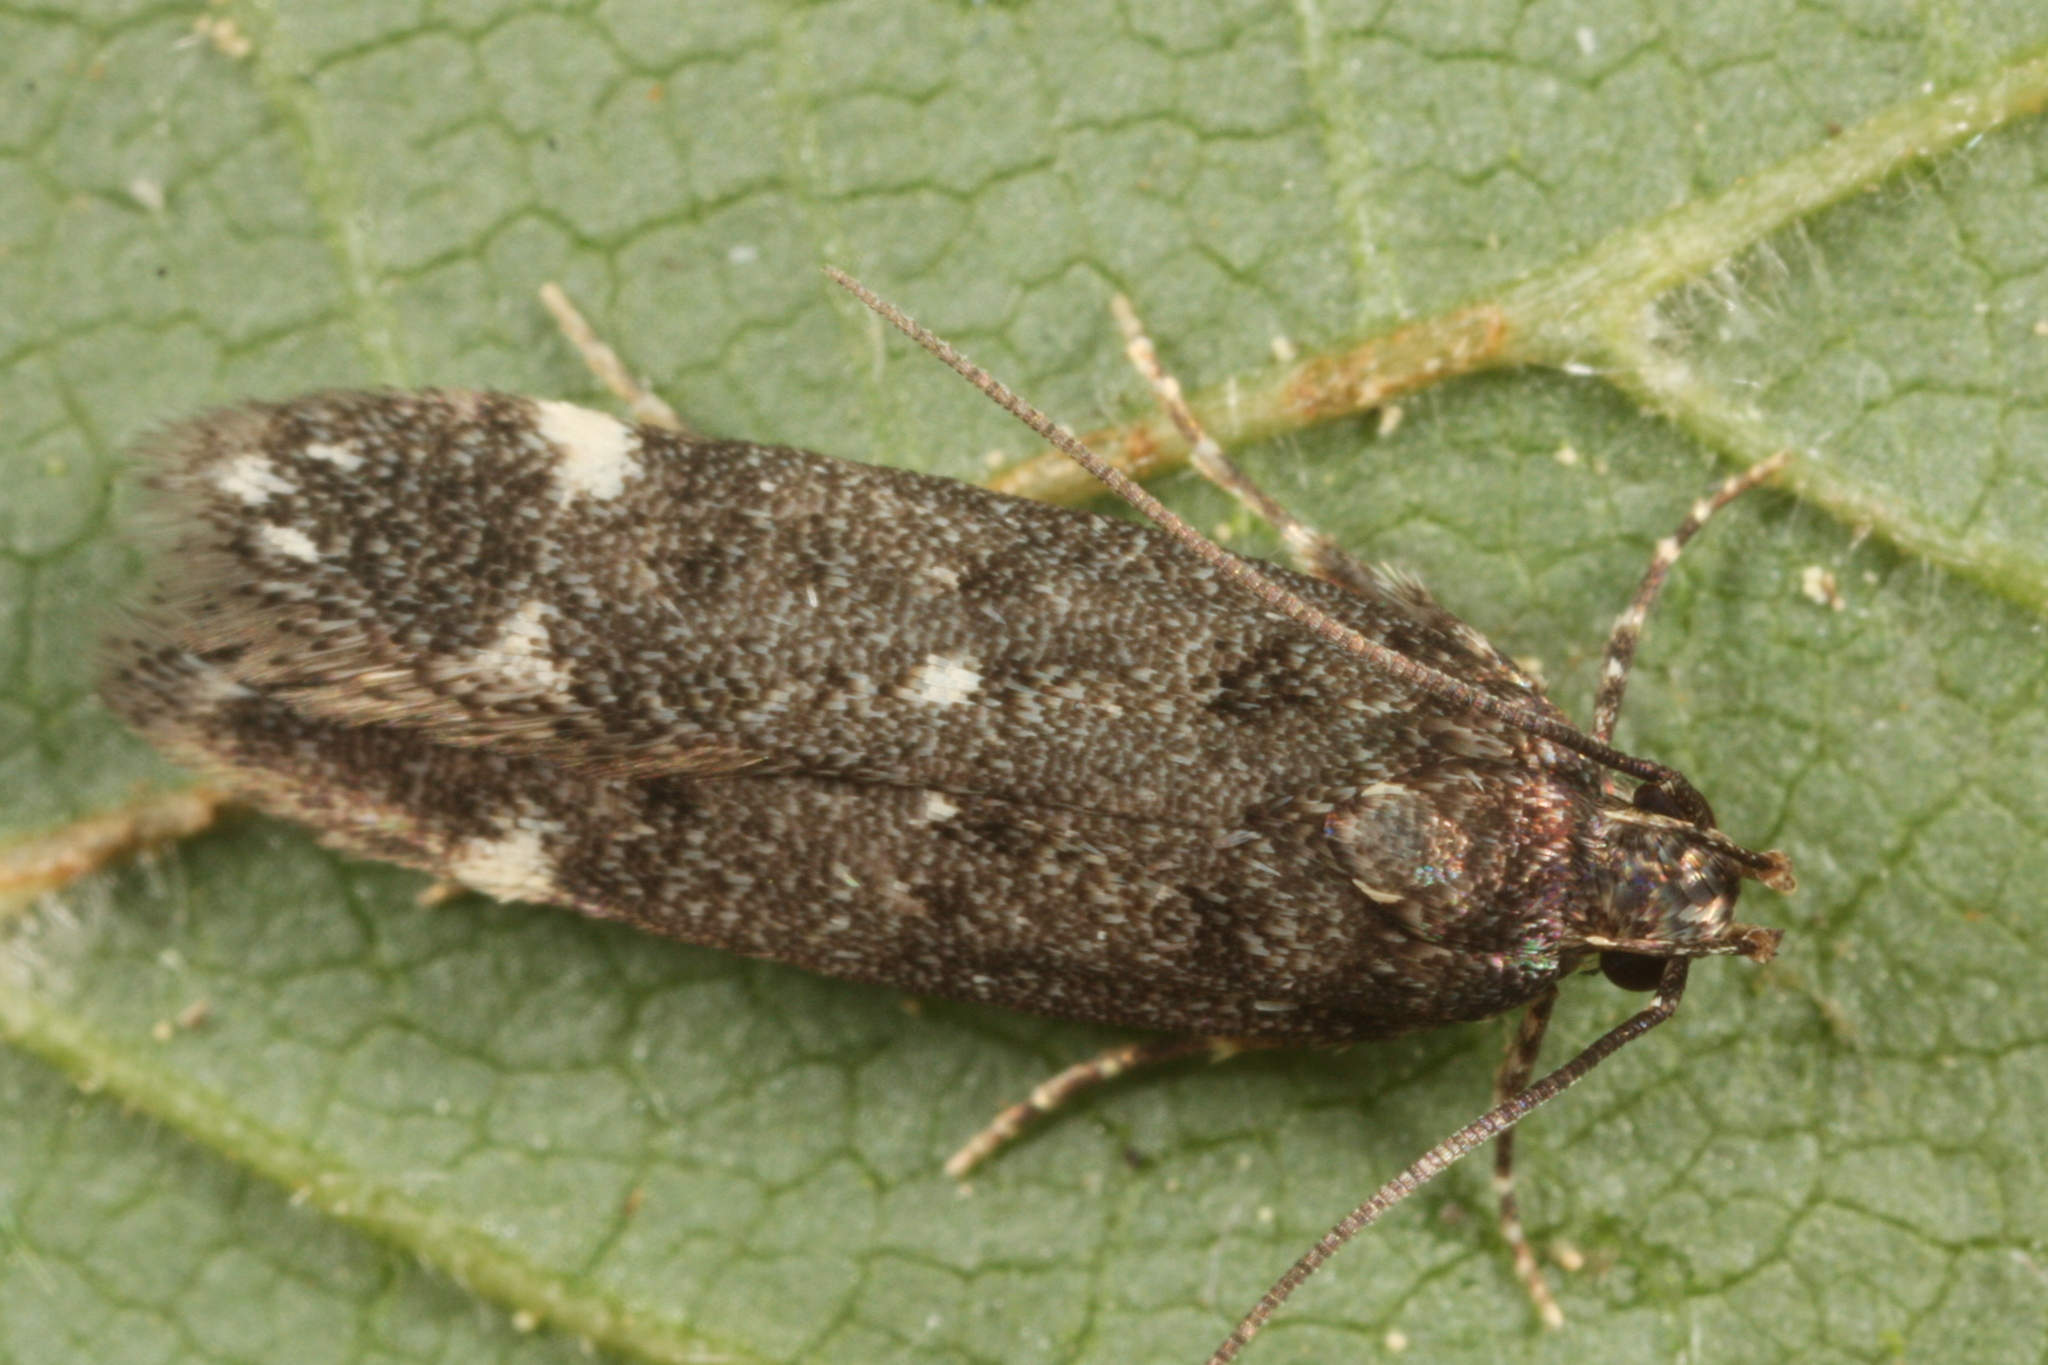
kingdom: Animalia
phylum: Arthropoda
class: Insecta
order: Lepidoptera
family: Gelechiidae
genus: Neofriseria
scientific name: Neofriseria peliella
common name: White-spot groundling
